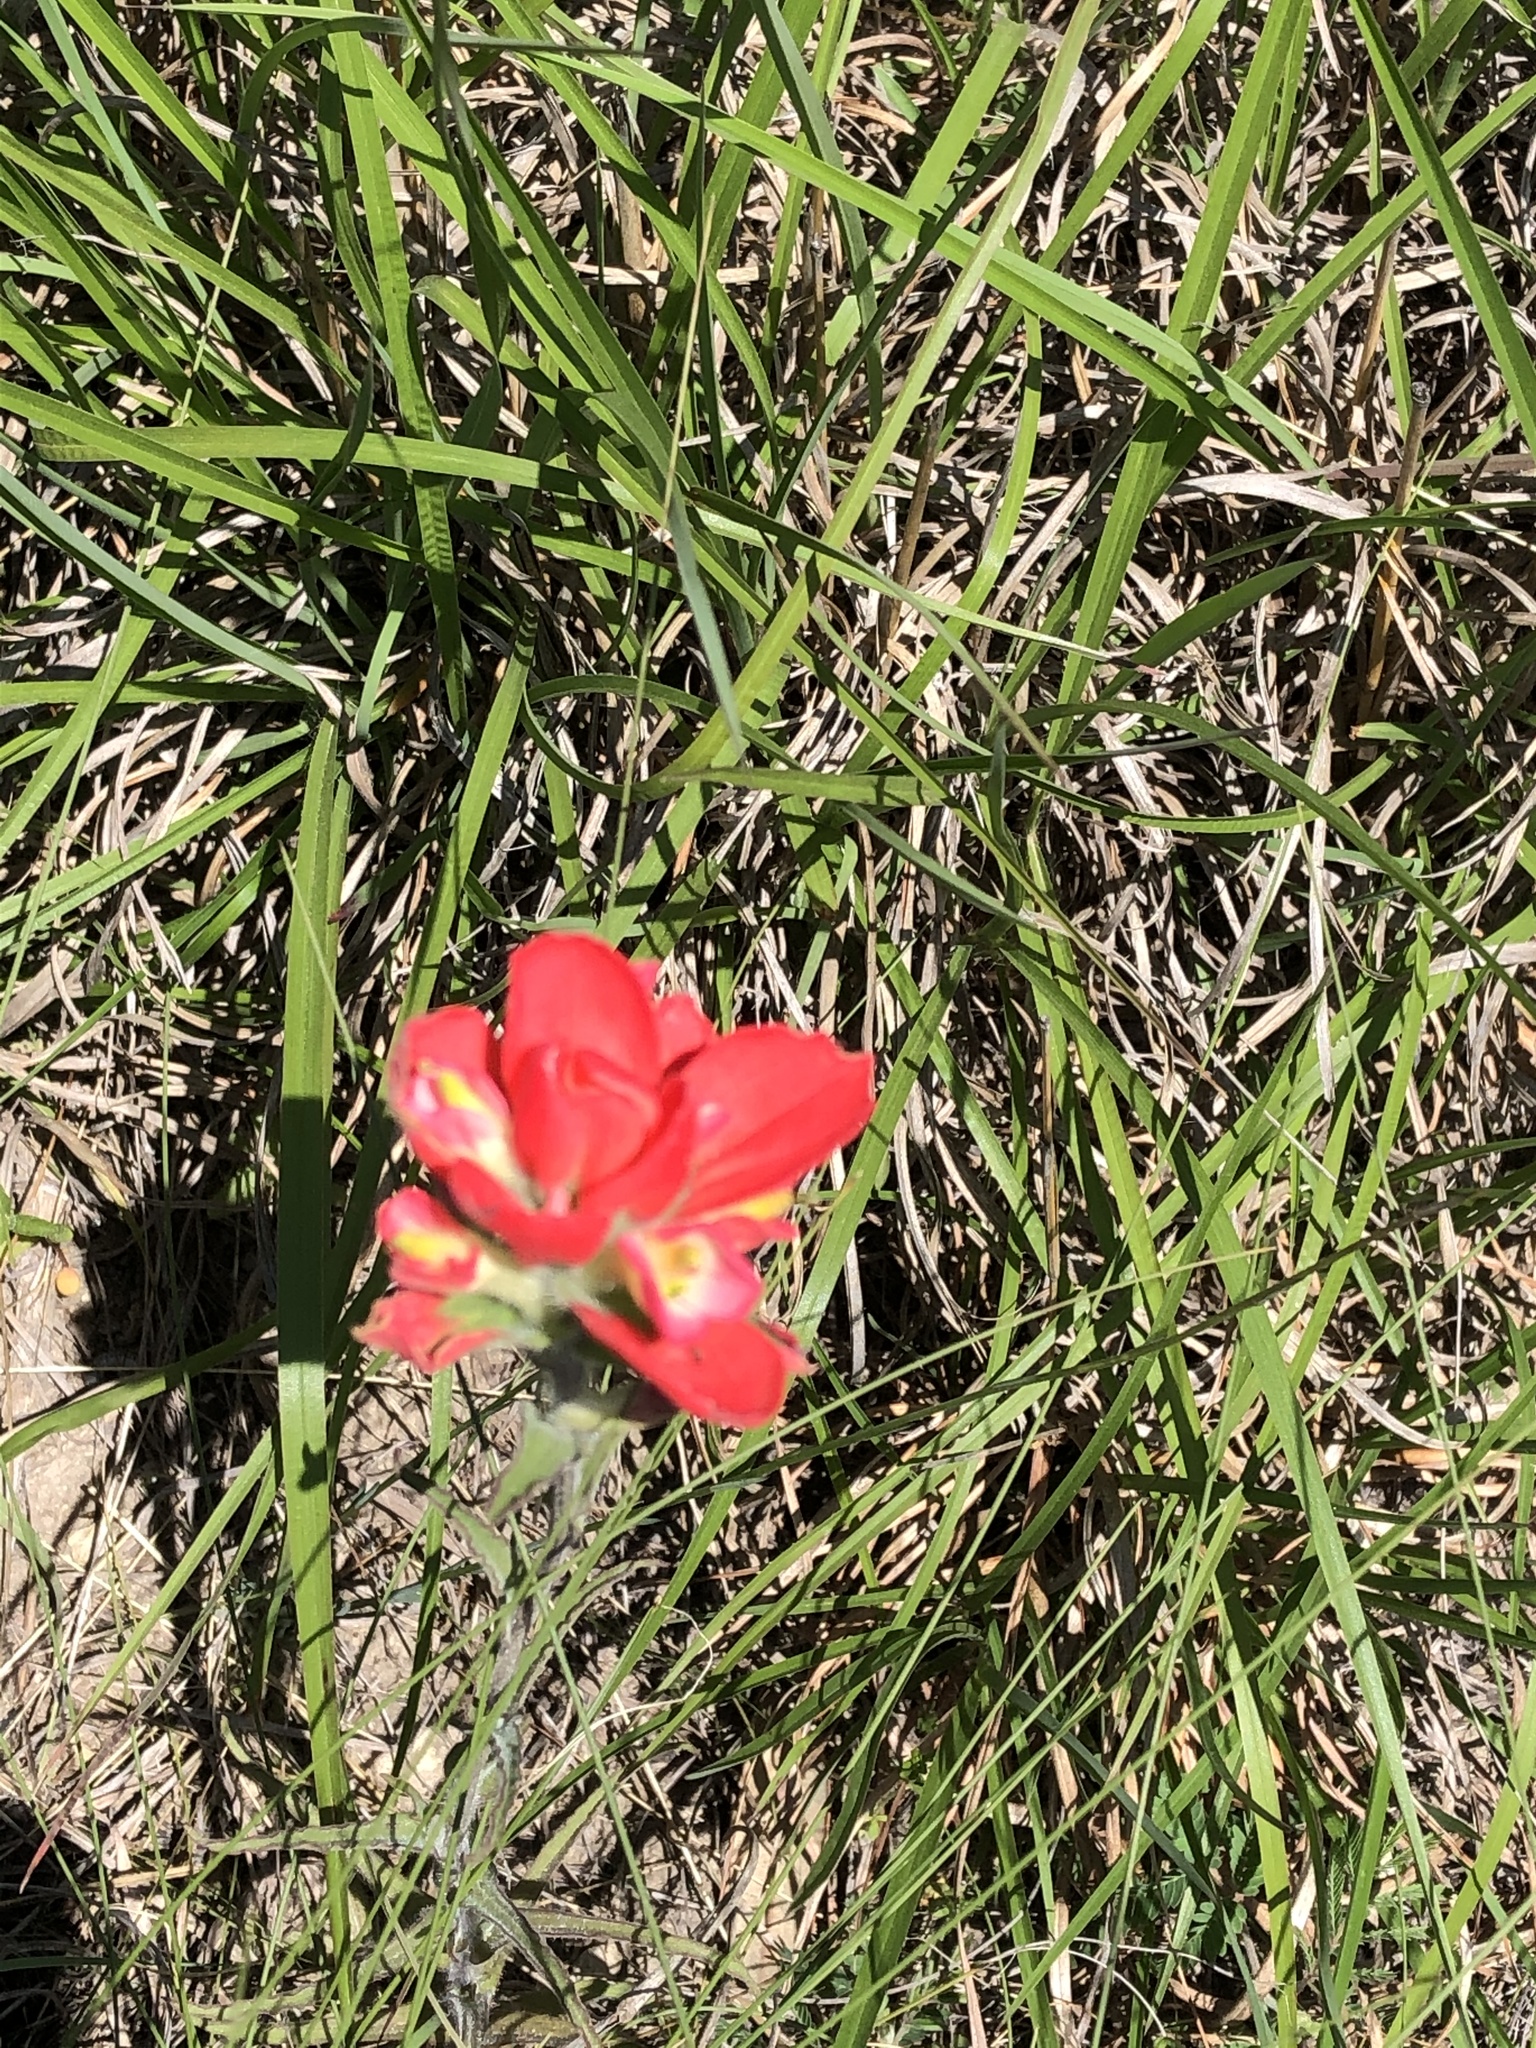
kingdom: Plantae
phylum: Tracheophyta
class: Magnoliopsida
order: Lamiales
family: Orobanchaceae
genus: Castilleja
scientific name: Castilleja indivisa
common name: Texas paintbrush
